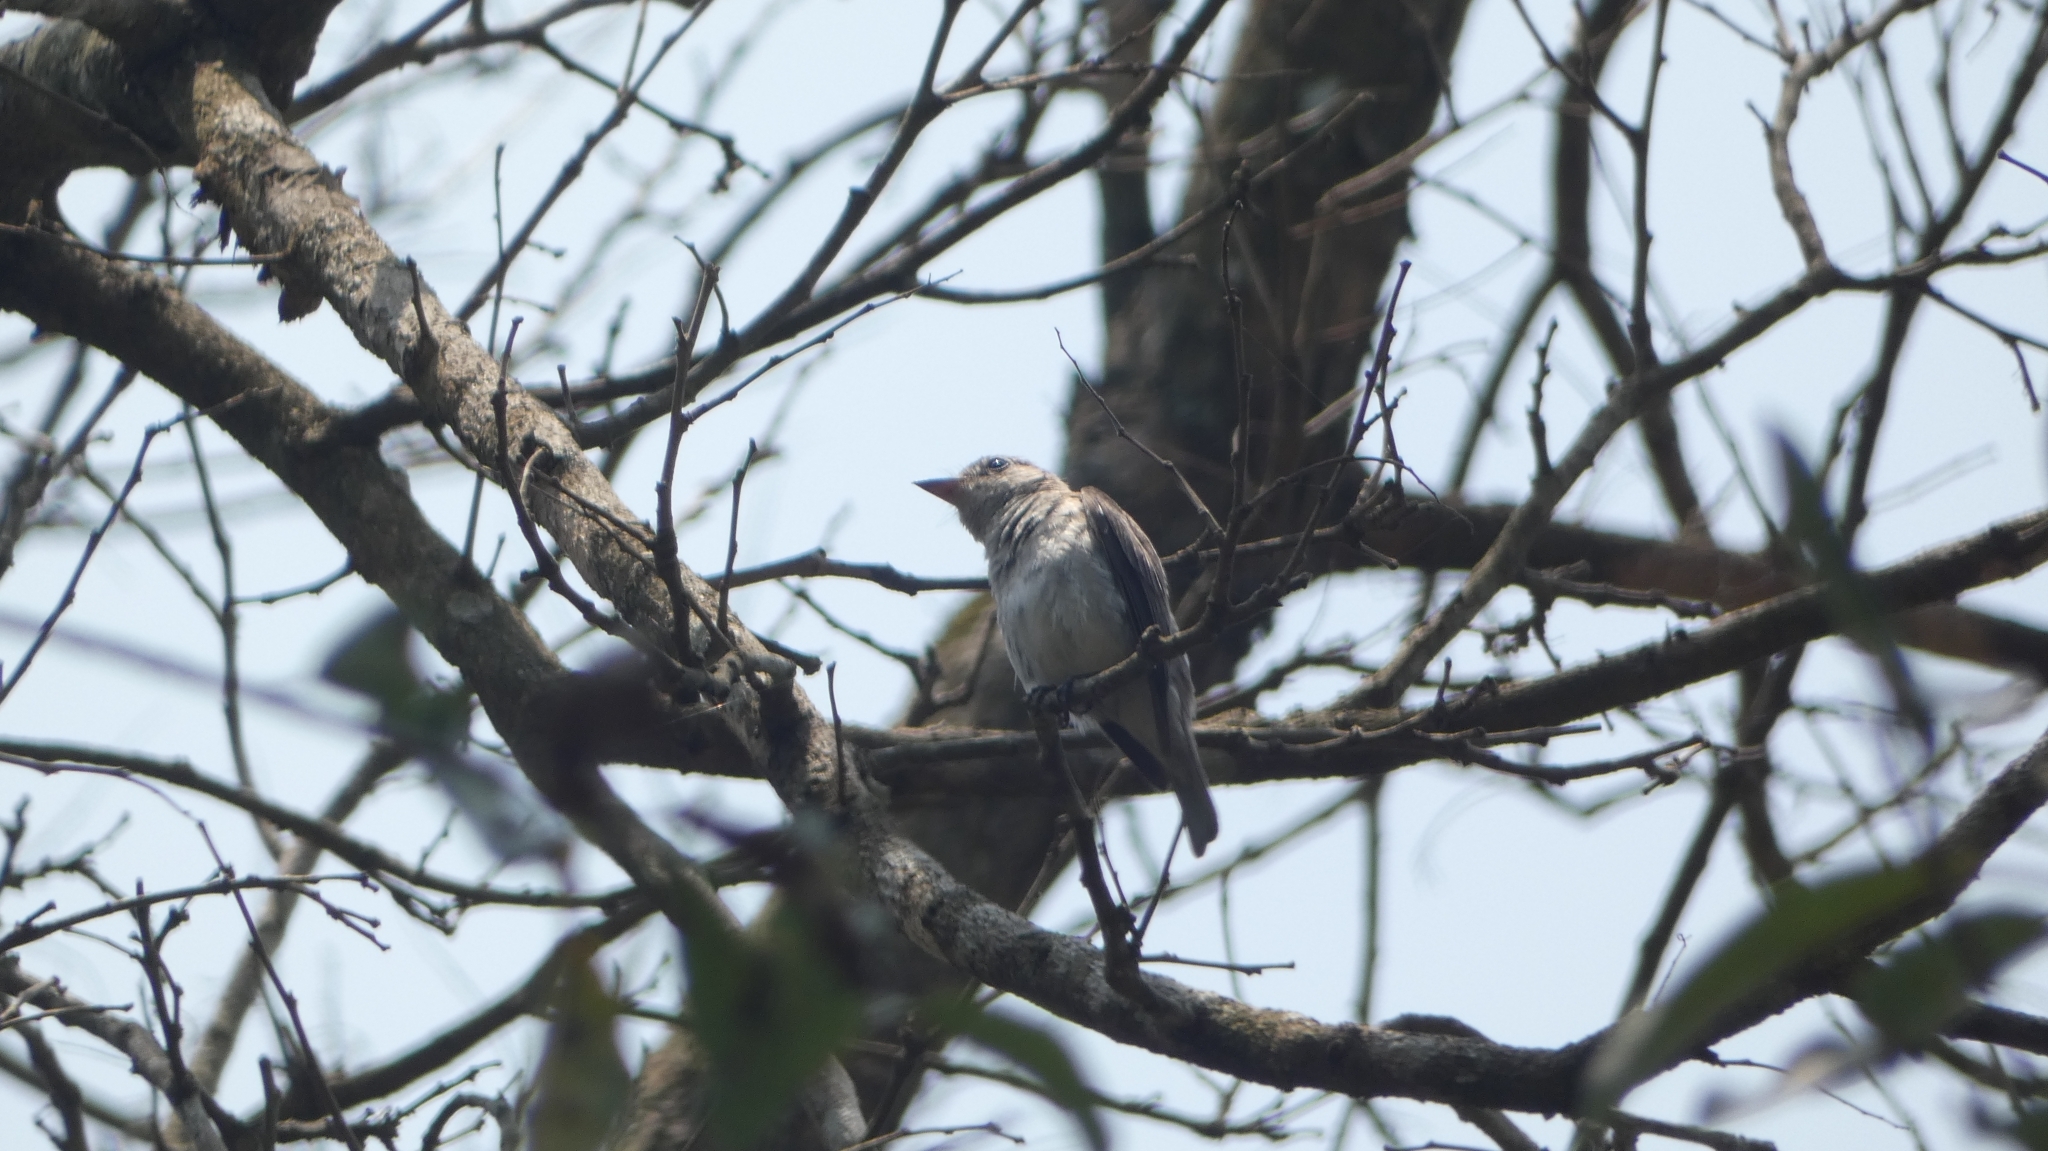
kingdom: Animalia
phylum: Chordata
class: Aves
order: Passeriformes
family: Muscicapidae
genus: Muscicapa
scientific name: Muscicapa latirostris
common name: Asian brown flycatcher
